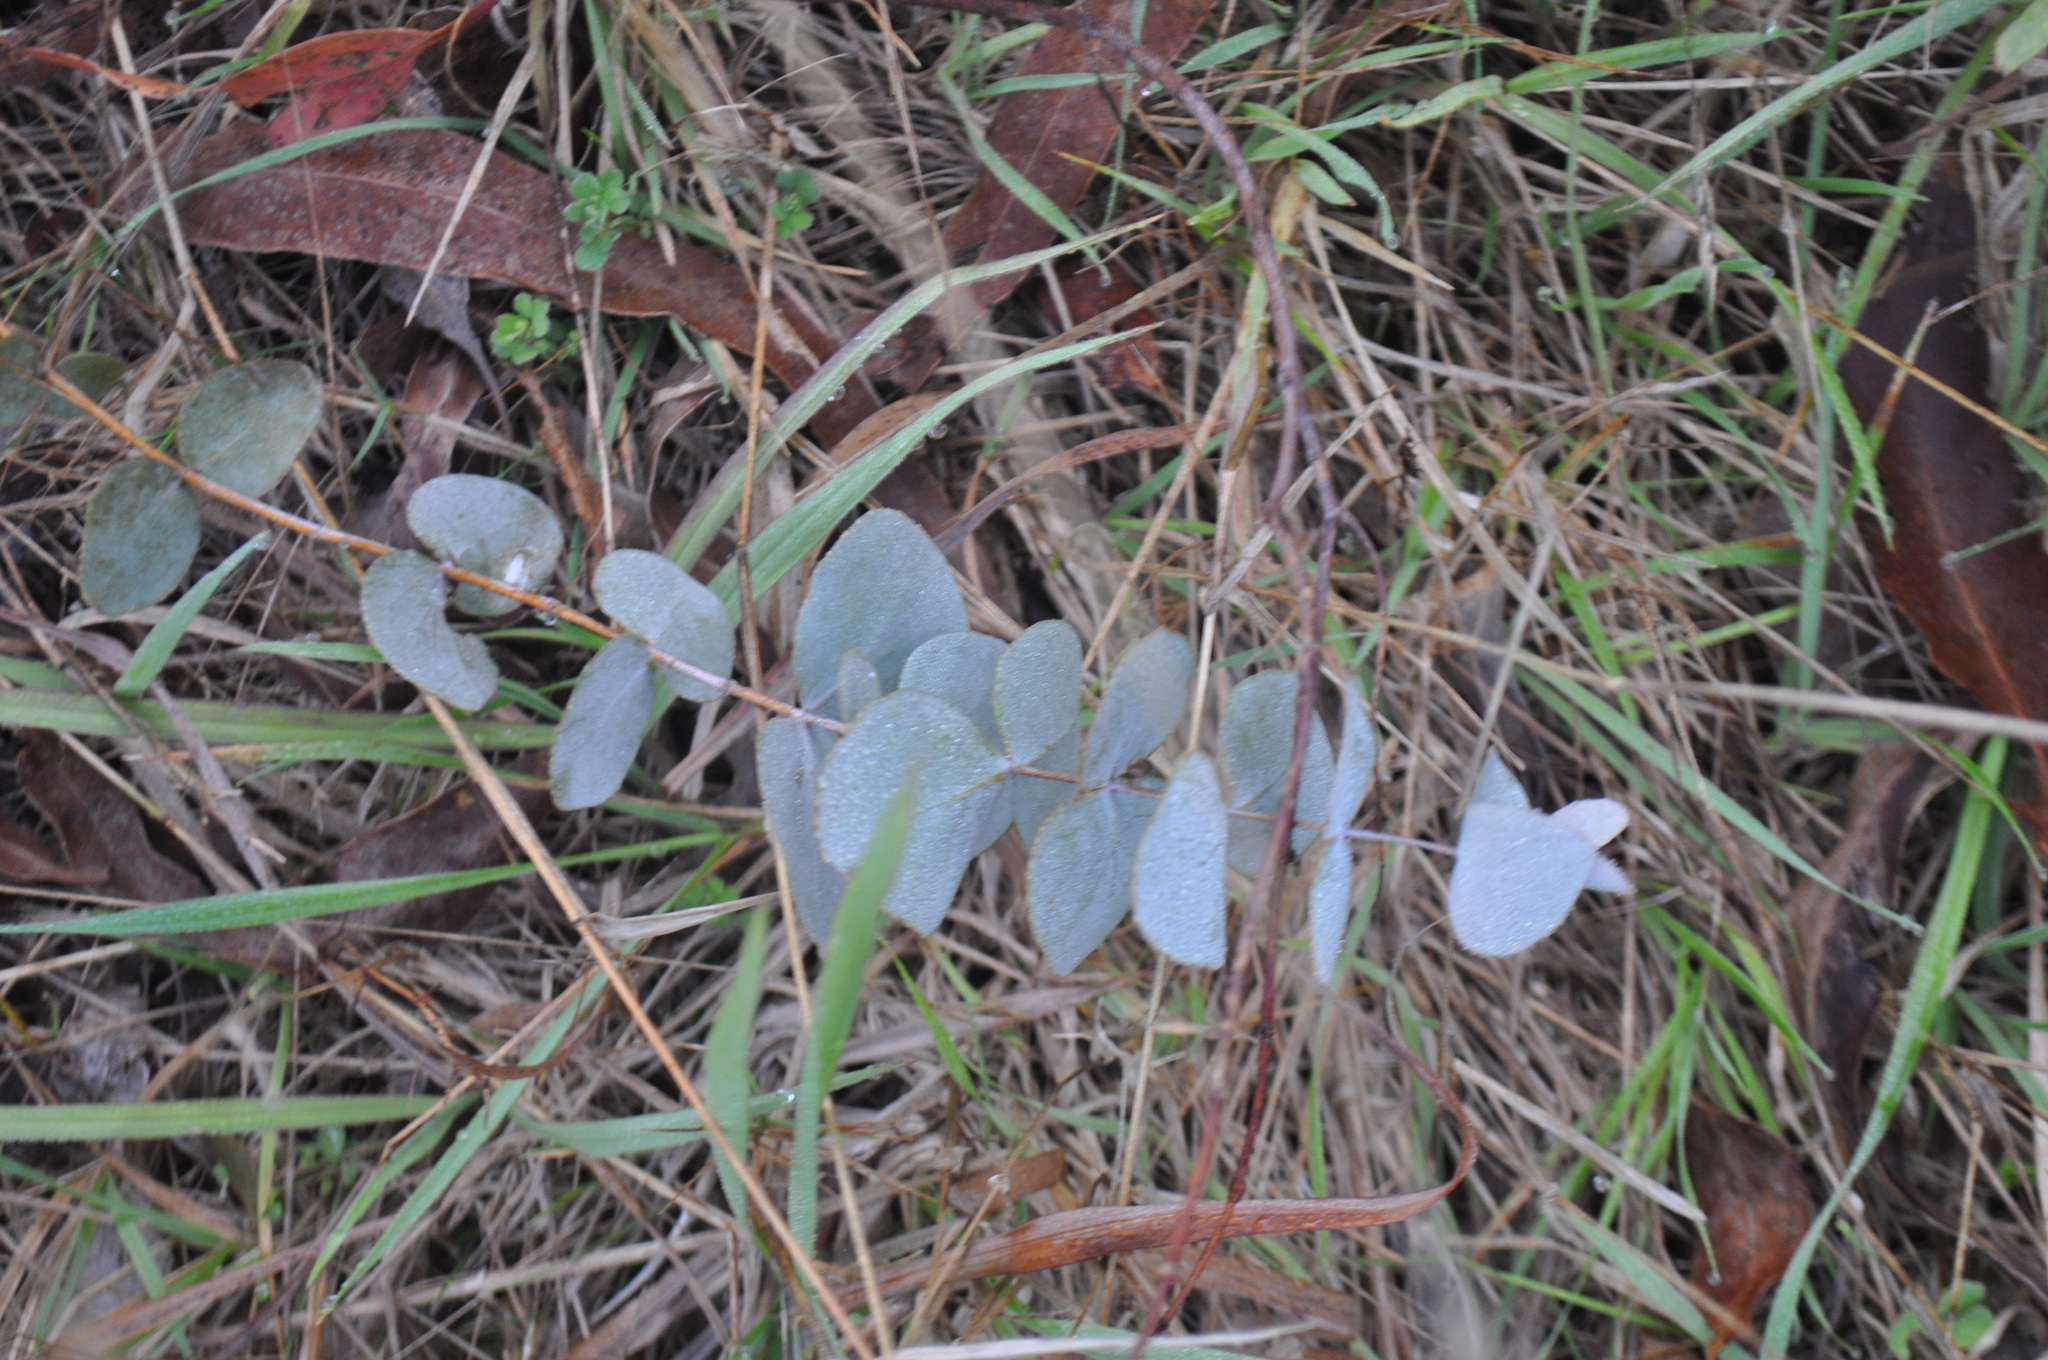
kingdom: Plantae
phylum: Tracheophyta
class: Magnoliopsida
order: Myrtales
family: Myrtaceae
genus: Eucalyptus
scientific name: Eucalyptus cinerea
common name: Argyle apple
